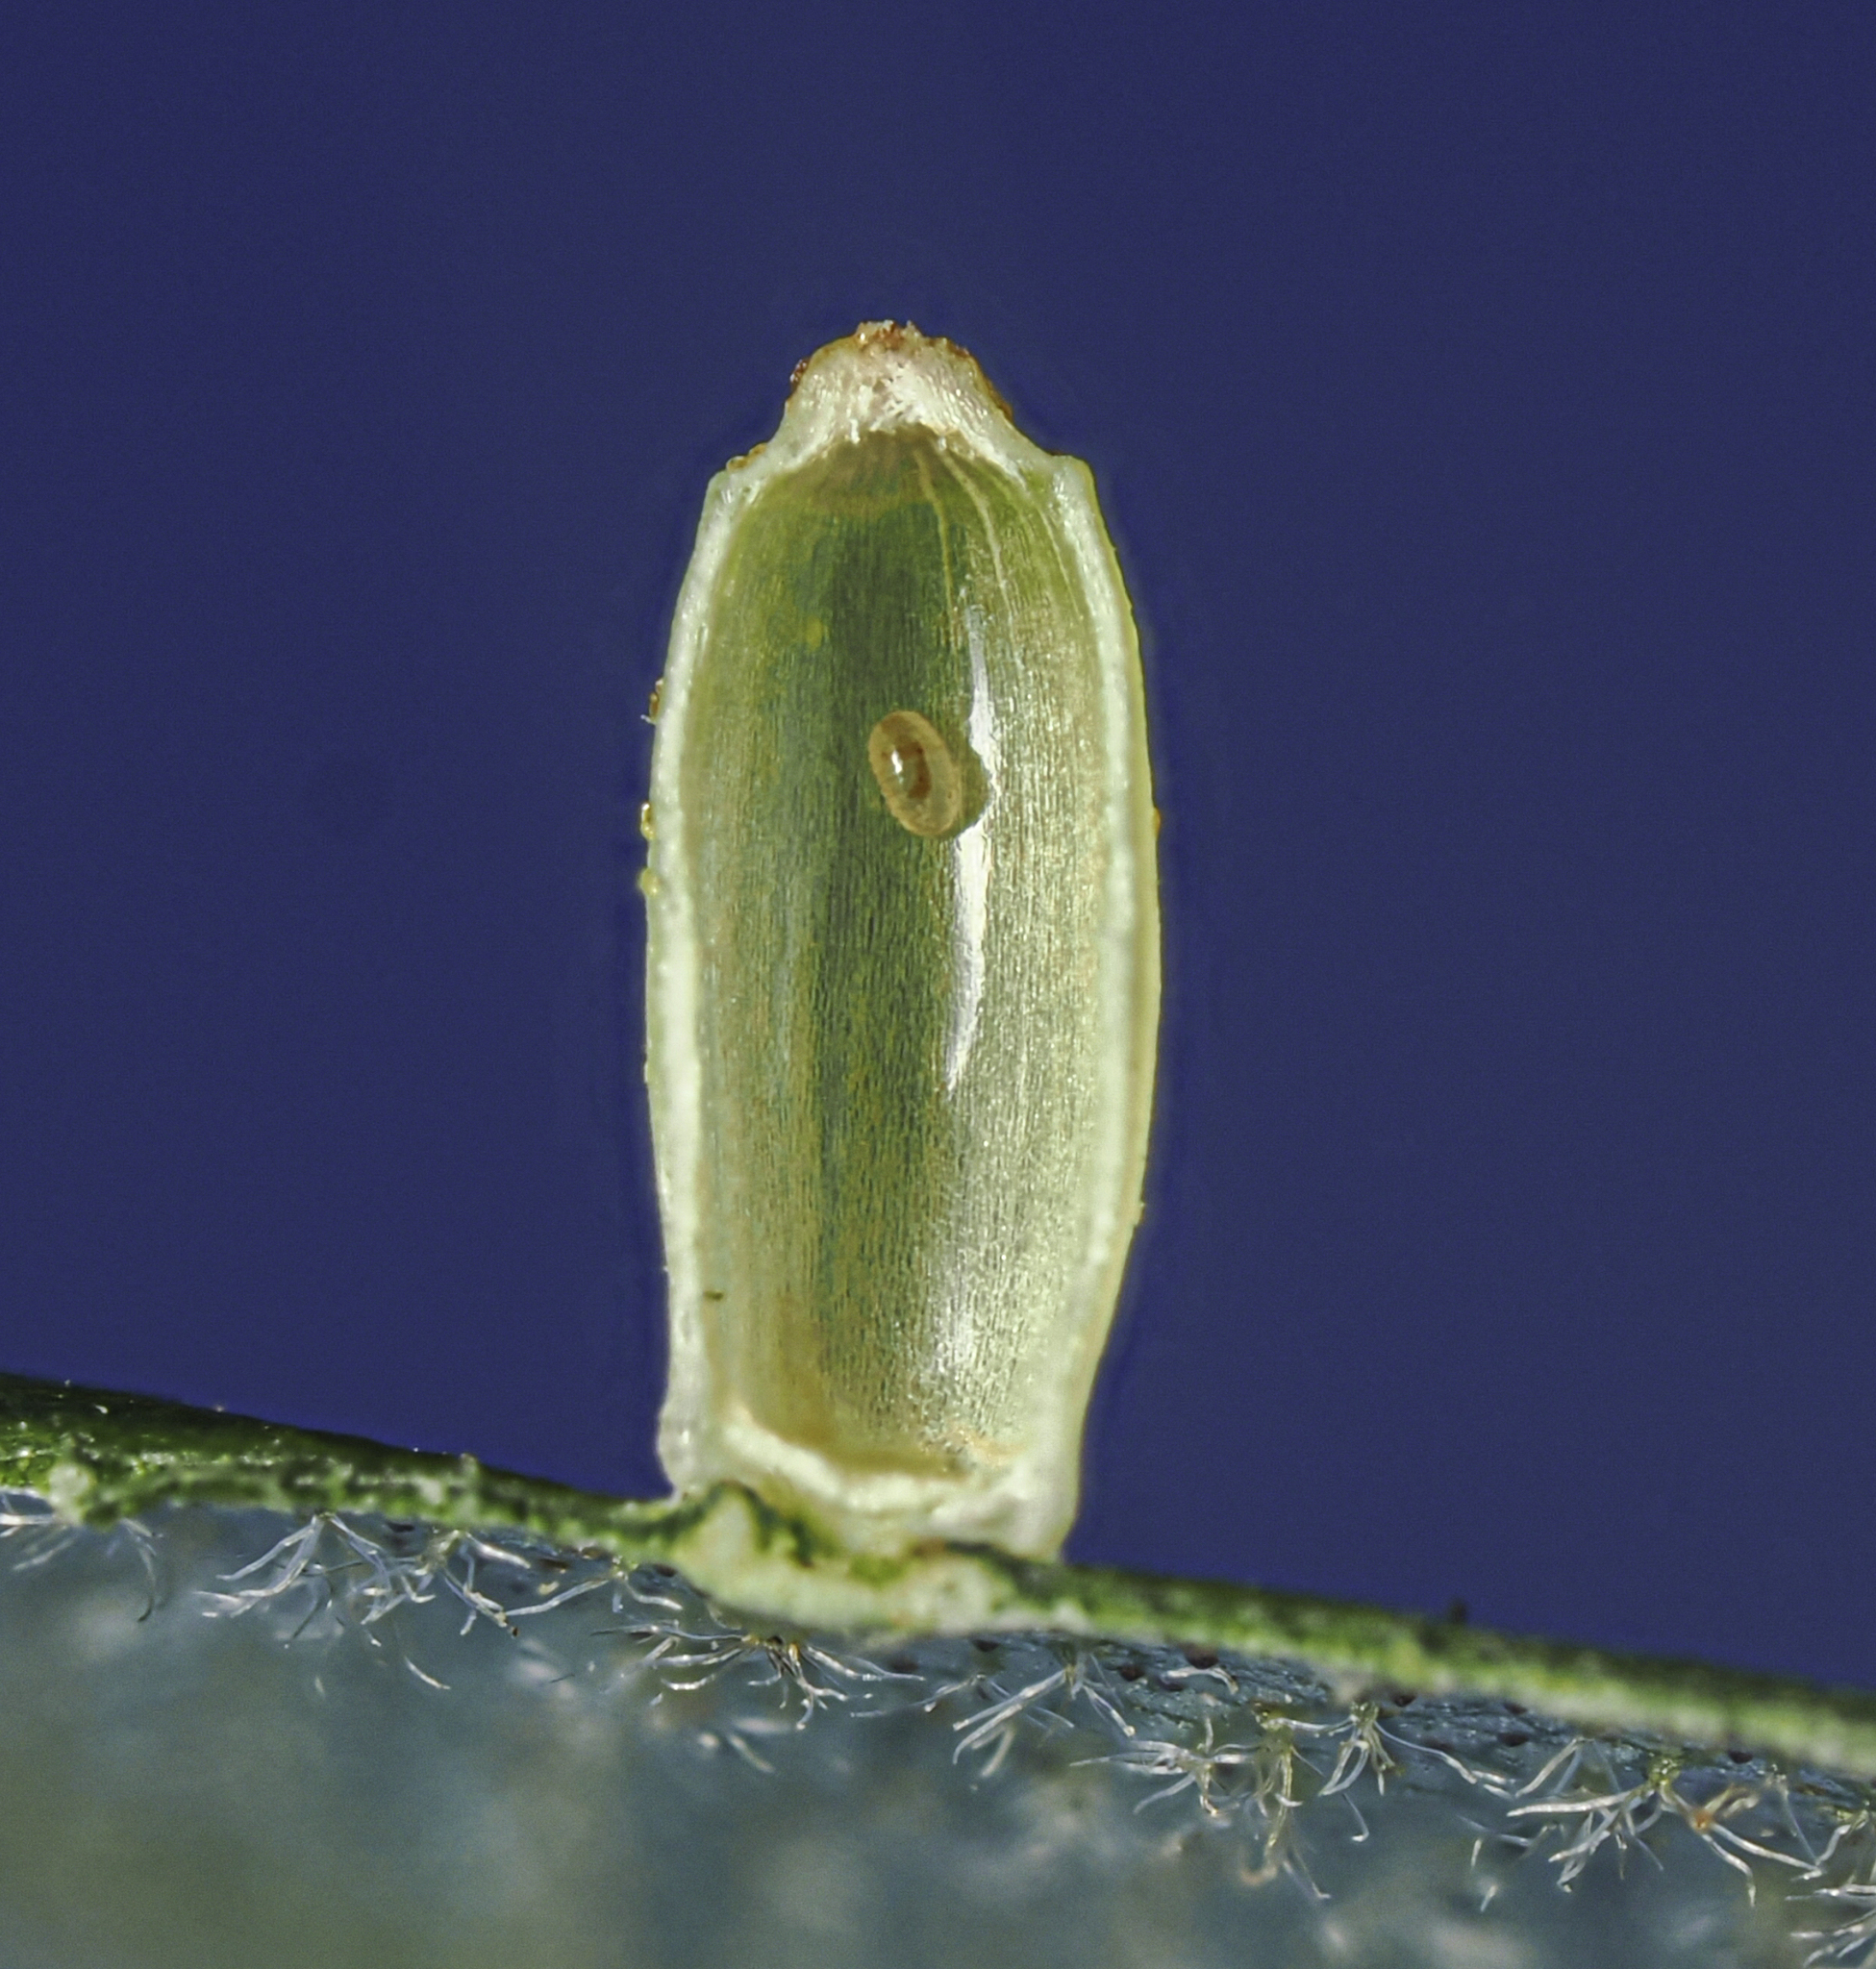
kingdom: Animalia
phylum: Arthropoda
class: Insecta
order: Diptera
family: Cecidomyiidae
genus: Caryomyia
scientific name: Caryomyia urnula
